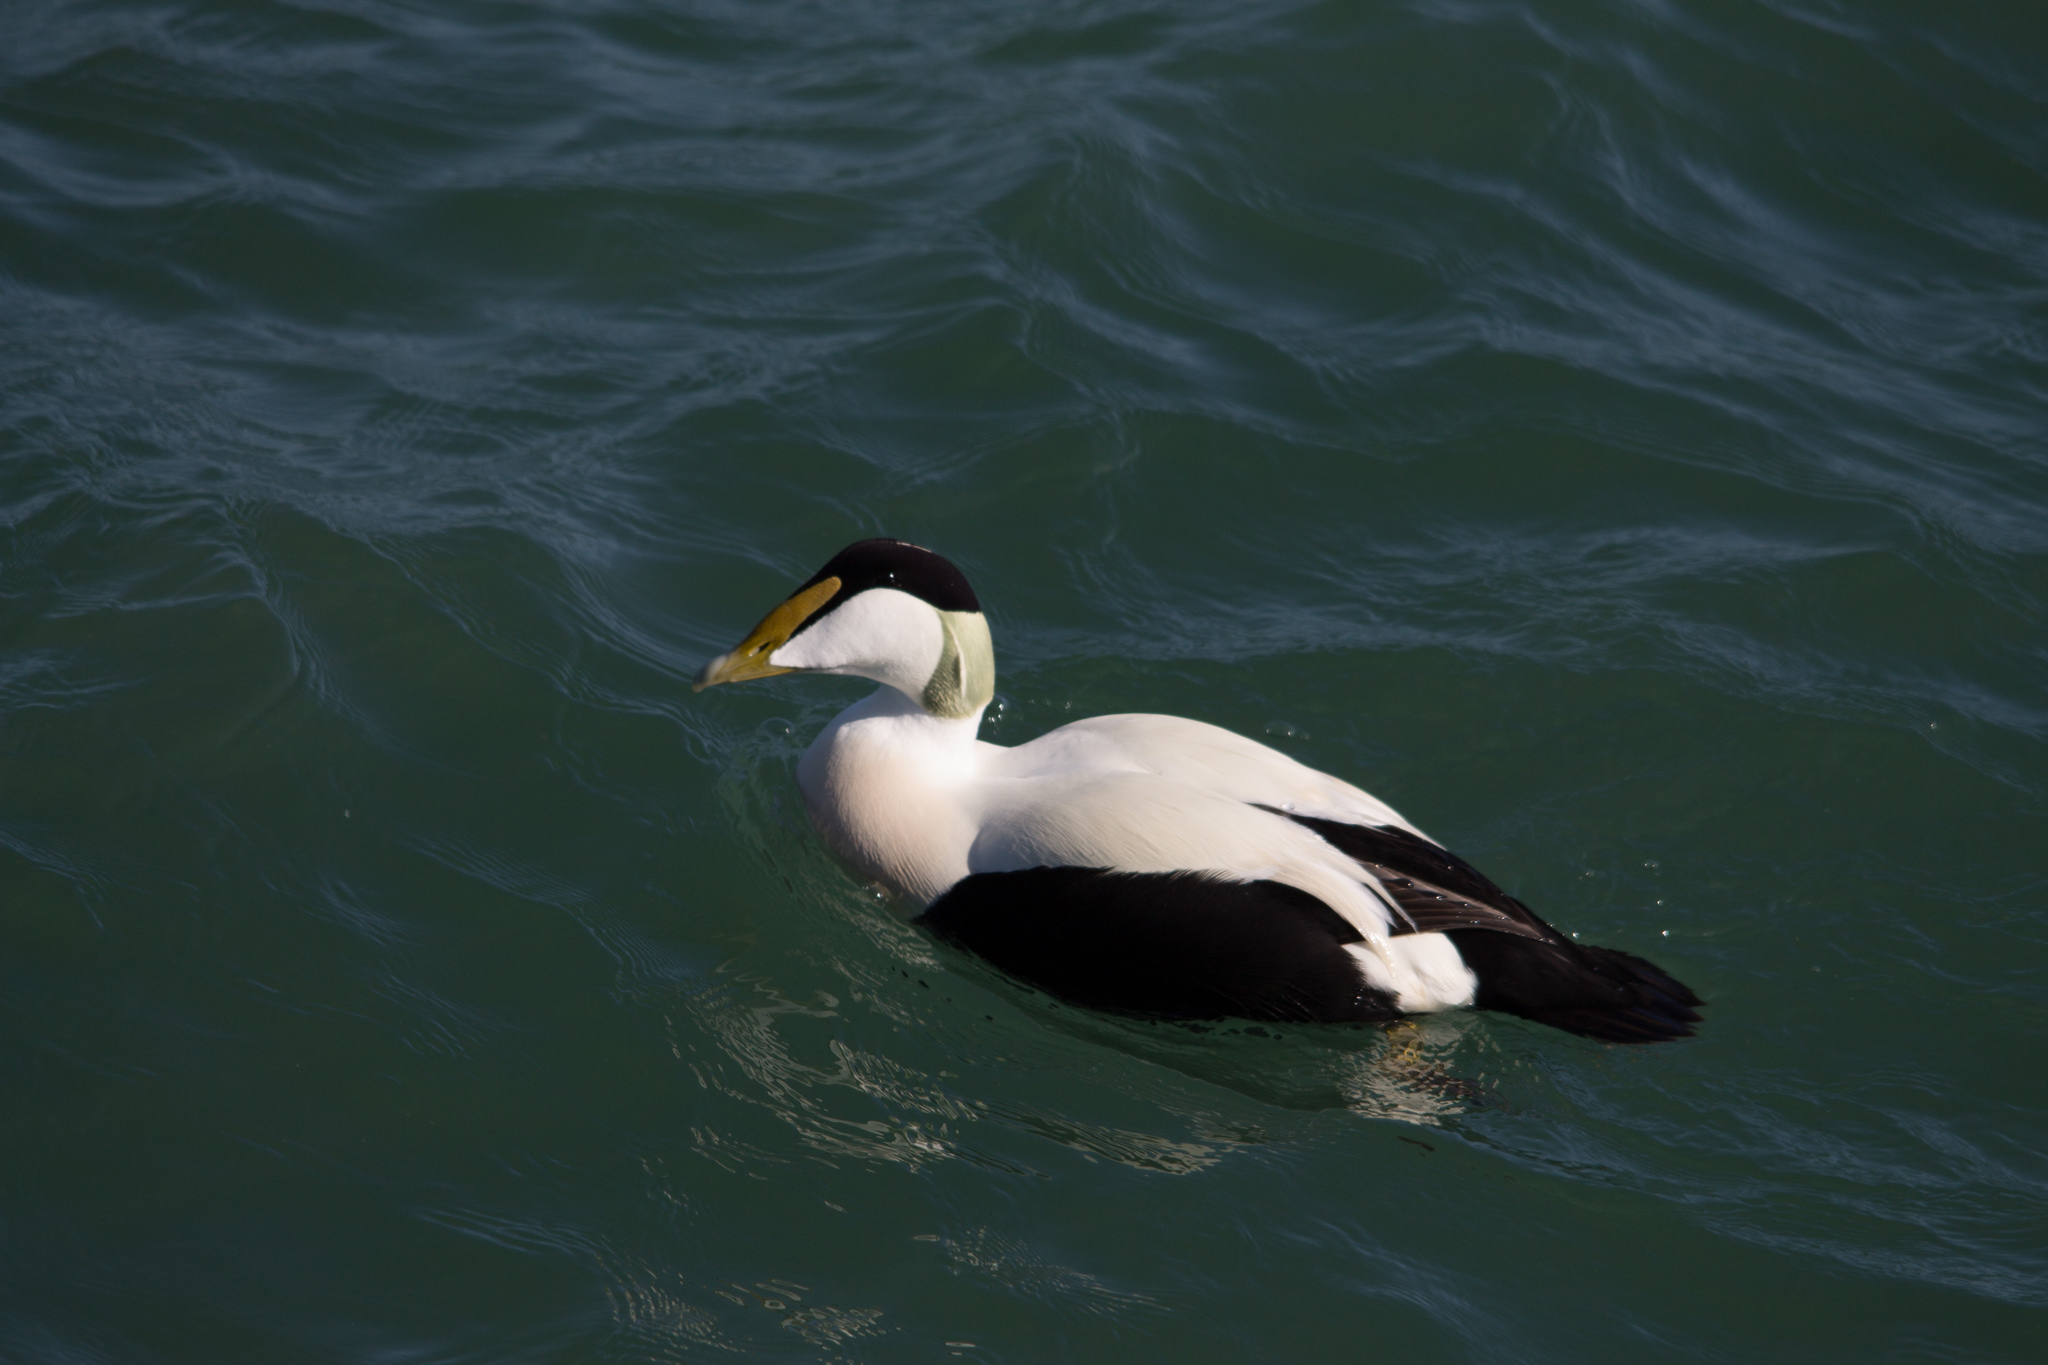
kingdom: Animalia
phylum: Chordata
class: Aves
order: Anseriformes
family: Anatidae
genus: Somateria
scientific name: Somateria mollissima
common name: Common eider
